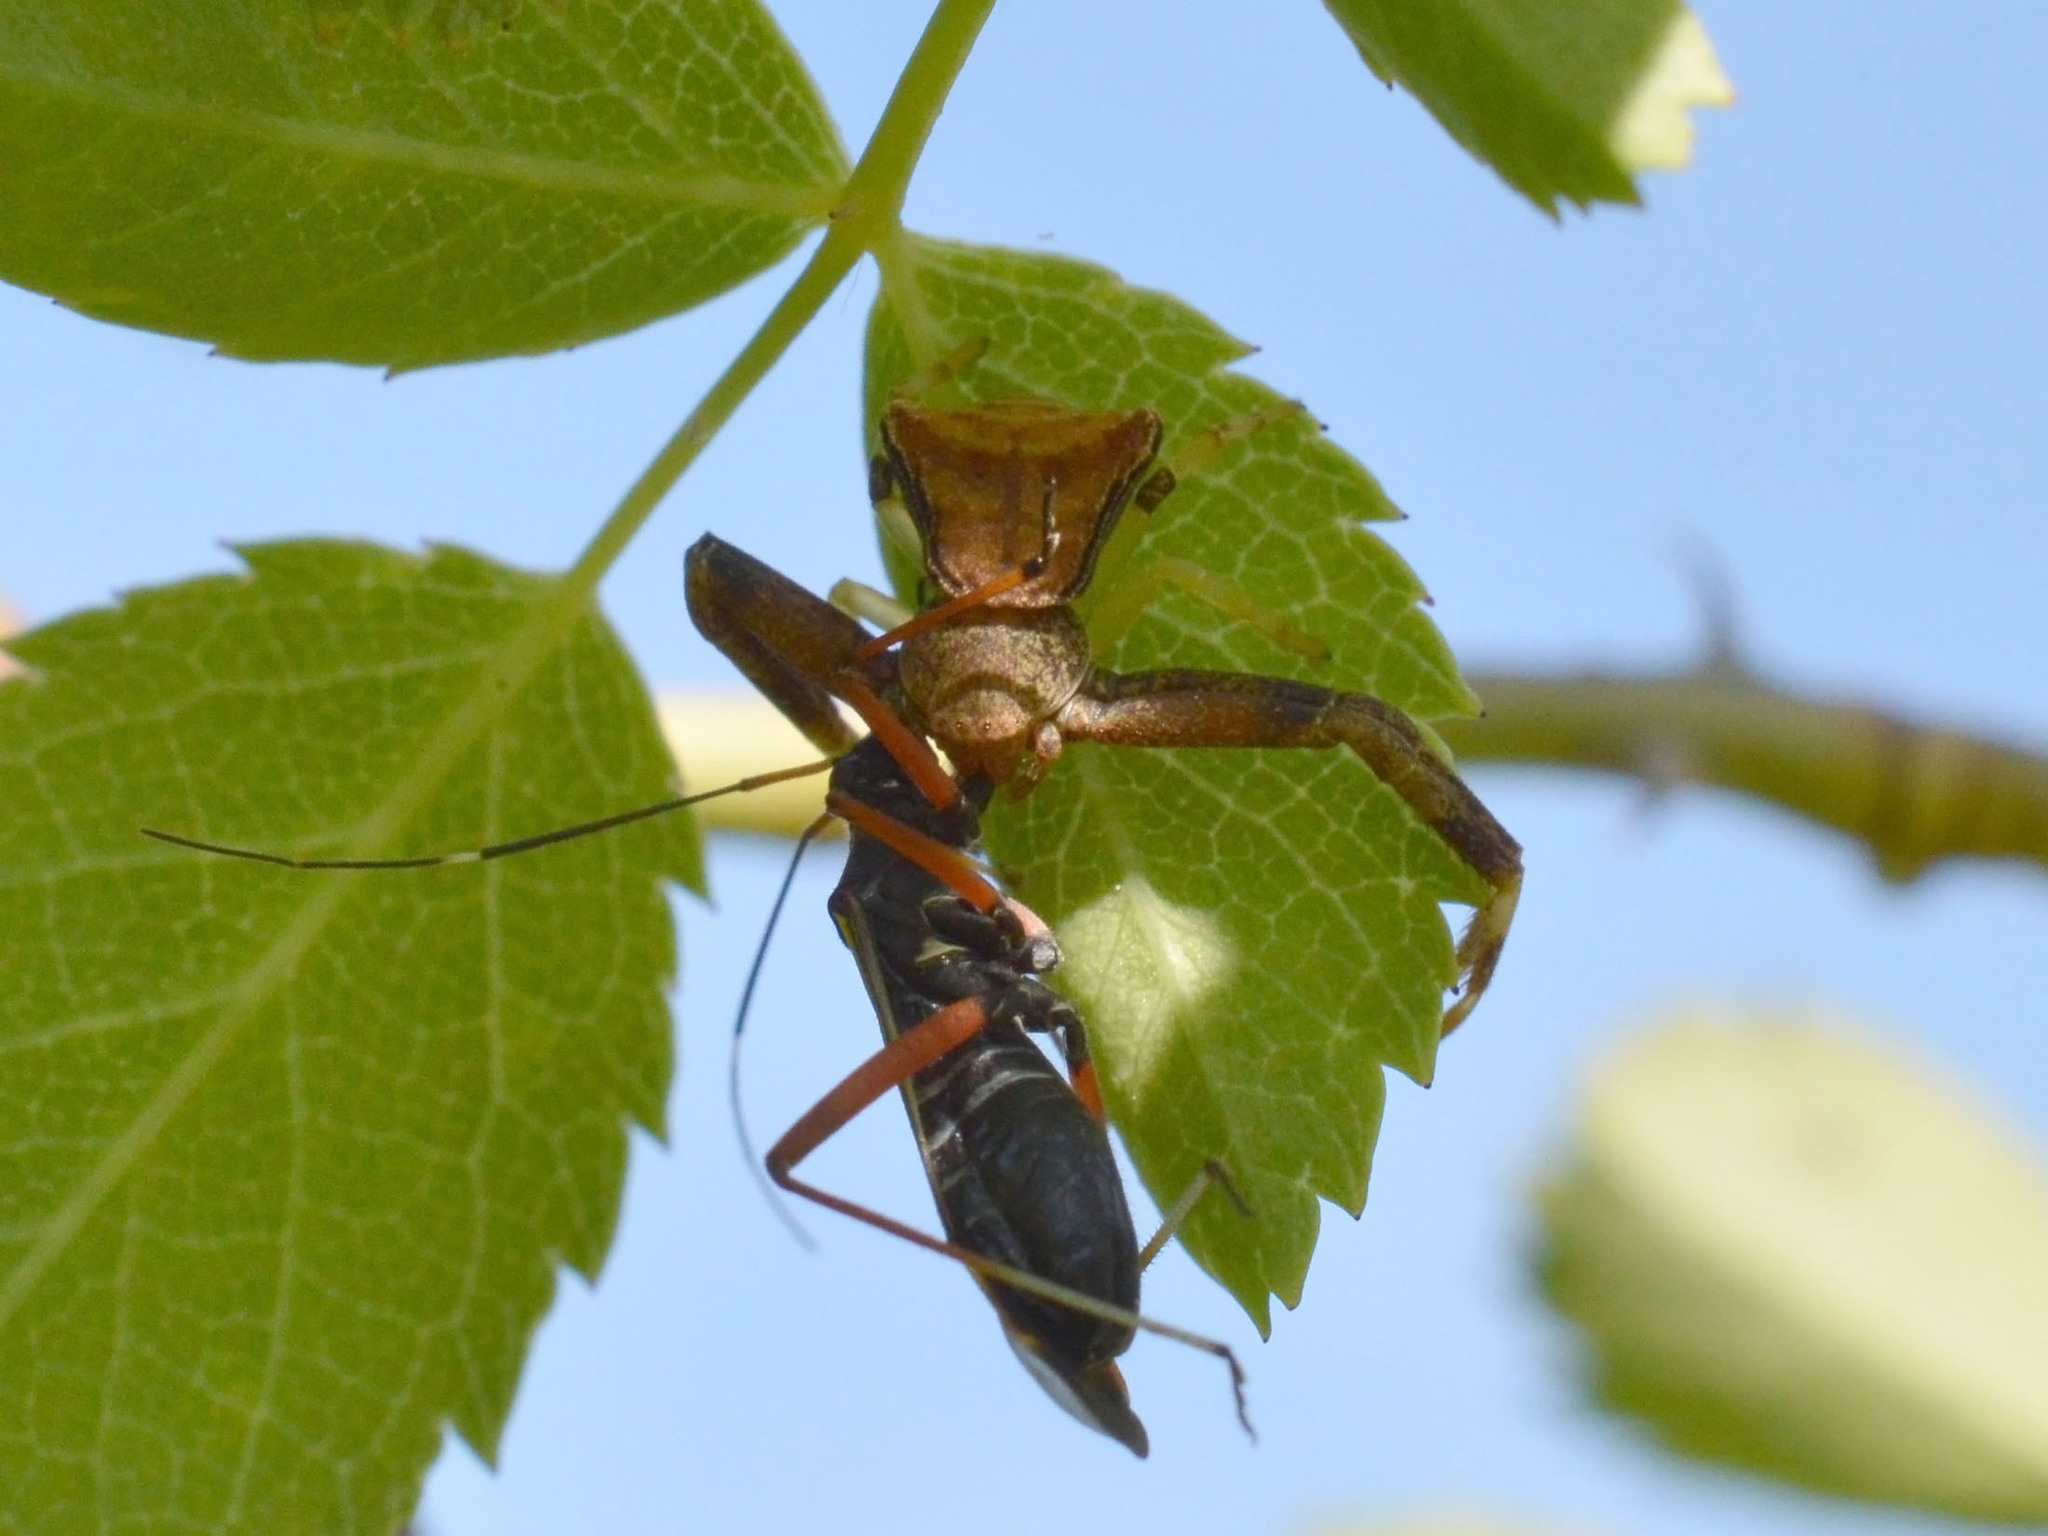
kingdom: Animalia
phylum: Arthropoda
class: Arachnida
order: Araneae
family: Thomisidae
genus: Pistius
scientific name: Pistius truncatus
